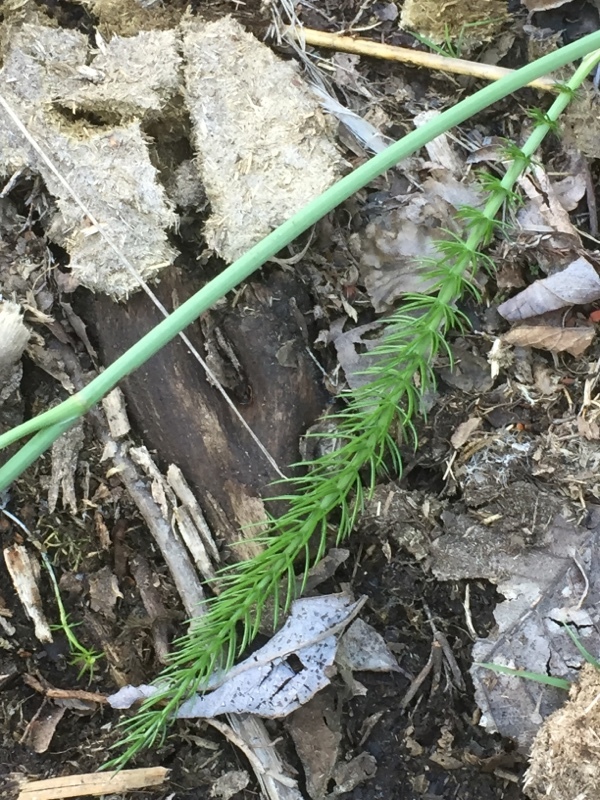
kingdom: Plantae
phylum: Tracheophyta
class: Magnoliopsida
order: Apiales
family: Apiaceae
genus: Trocdaris
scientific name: Trocdaris verticillatum
